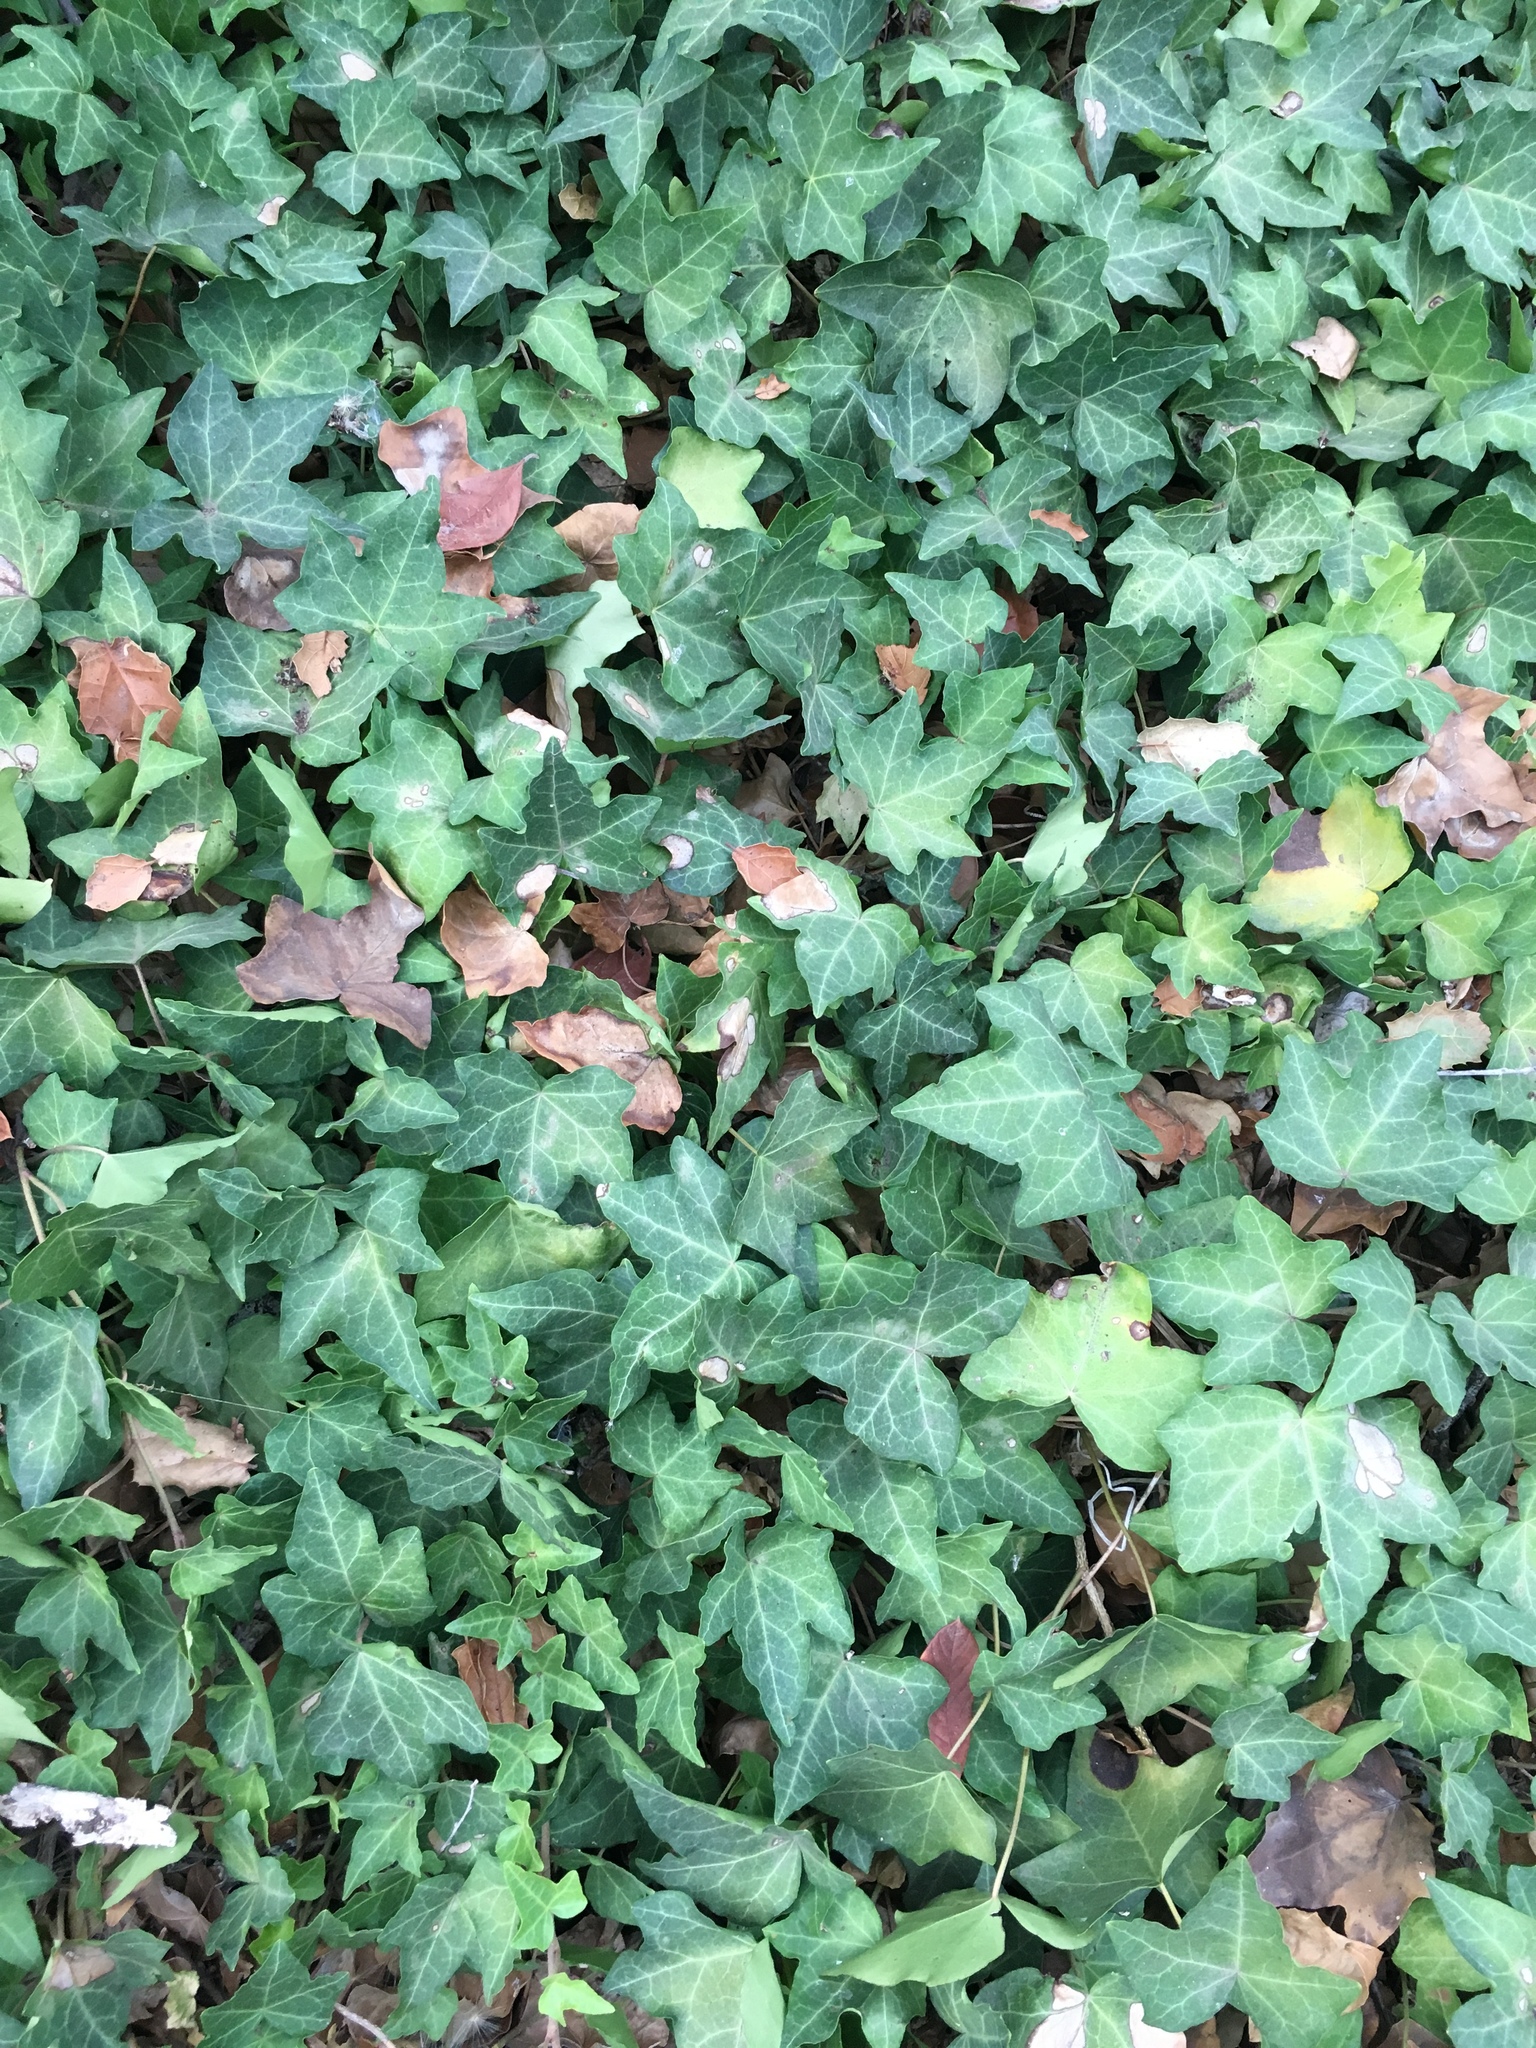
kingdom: Plantae
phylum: Tracheophyta
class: Magnoliopsida
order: Apiales
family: Araliaceae
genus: Hedera
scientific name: Hedera helix
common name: Ivy
